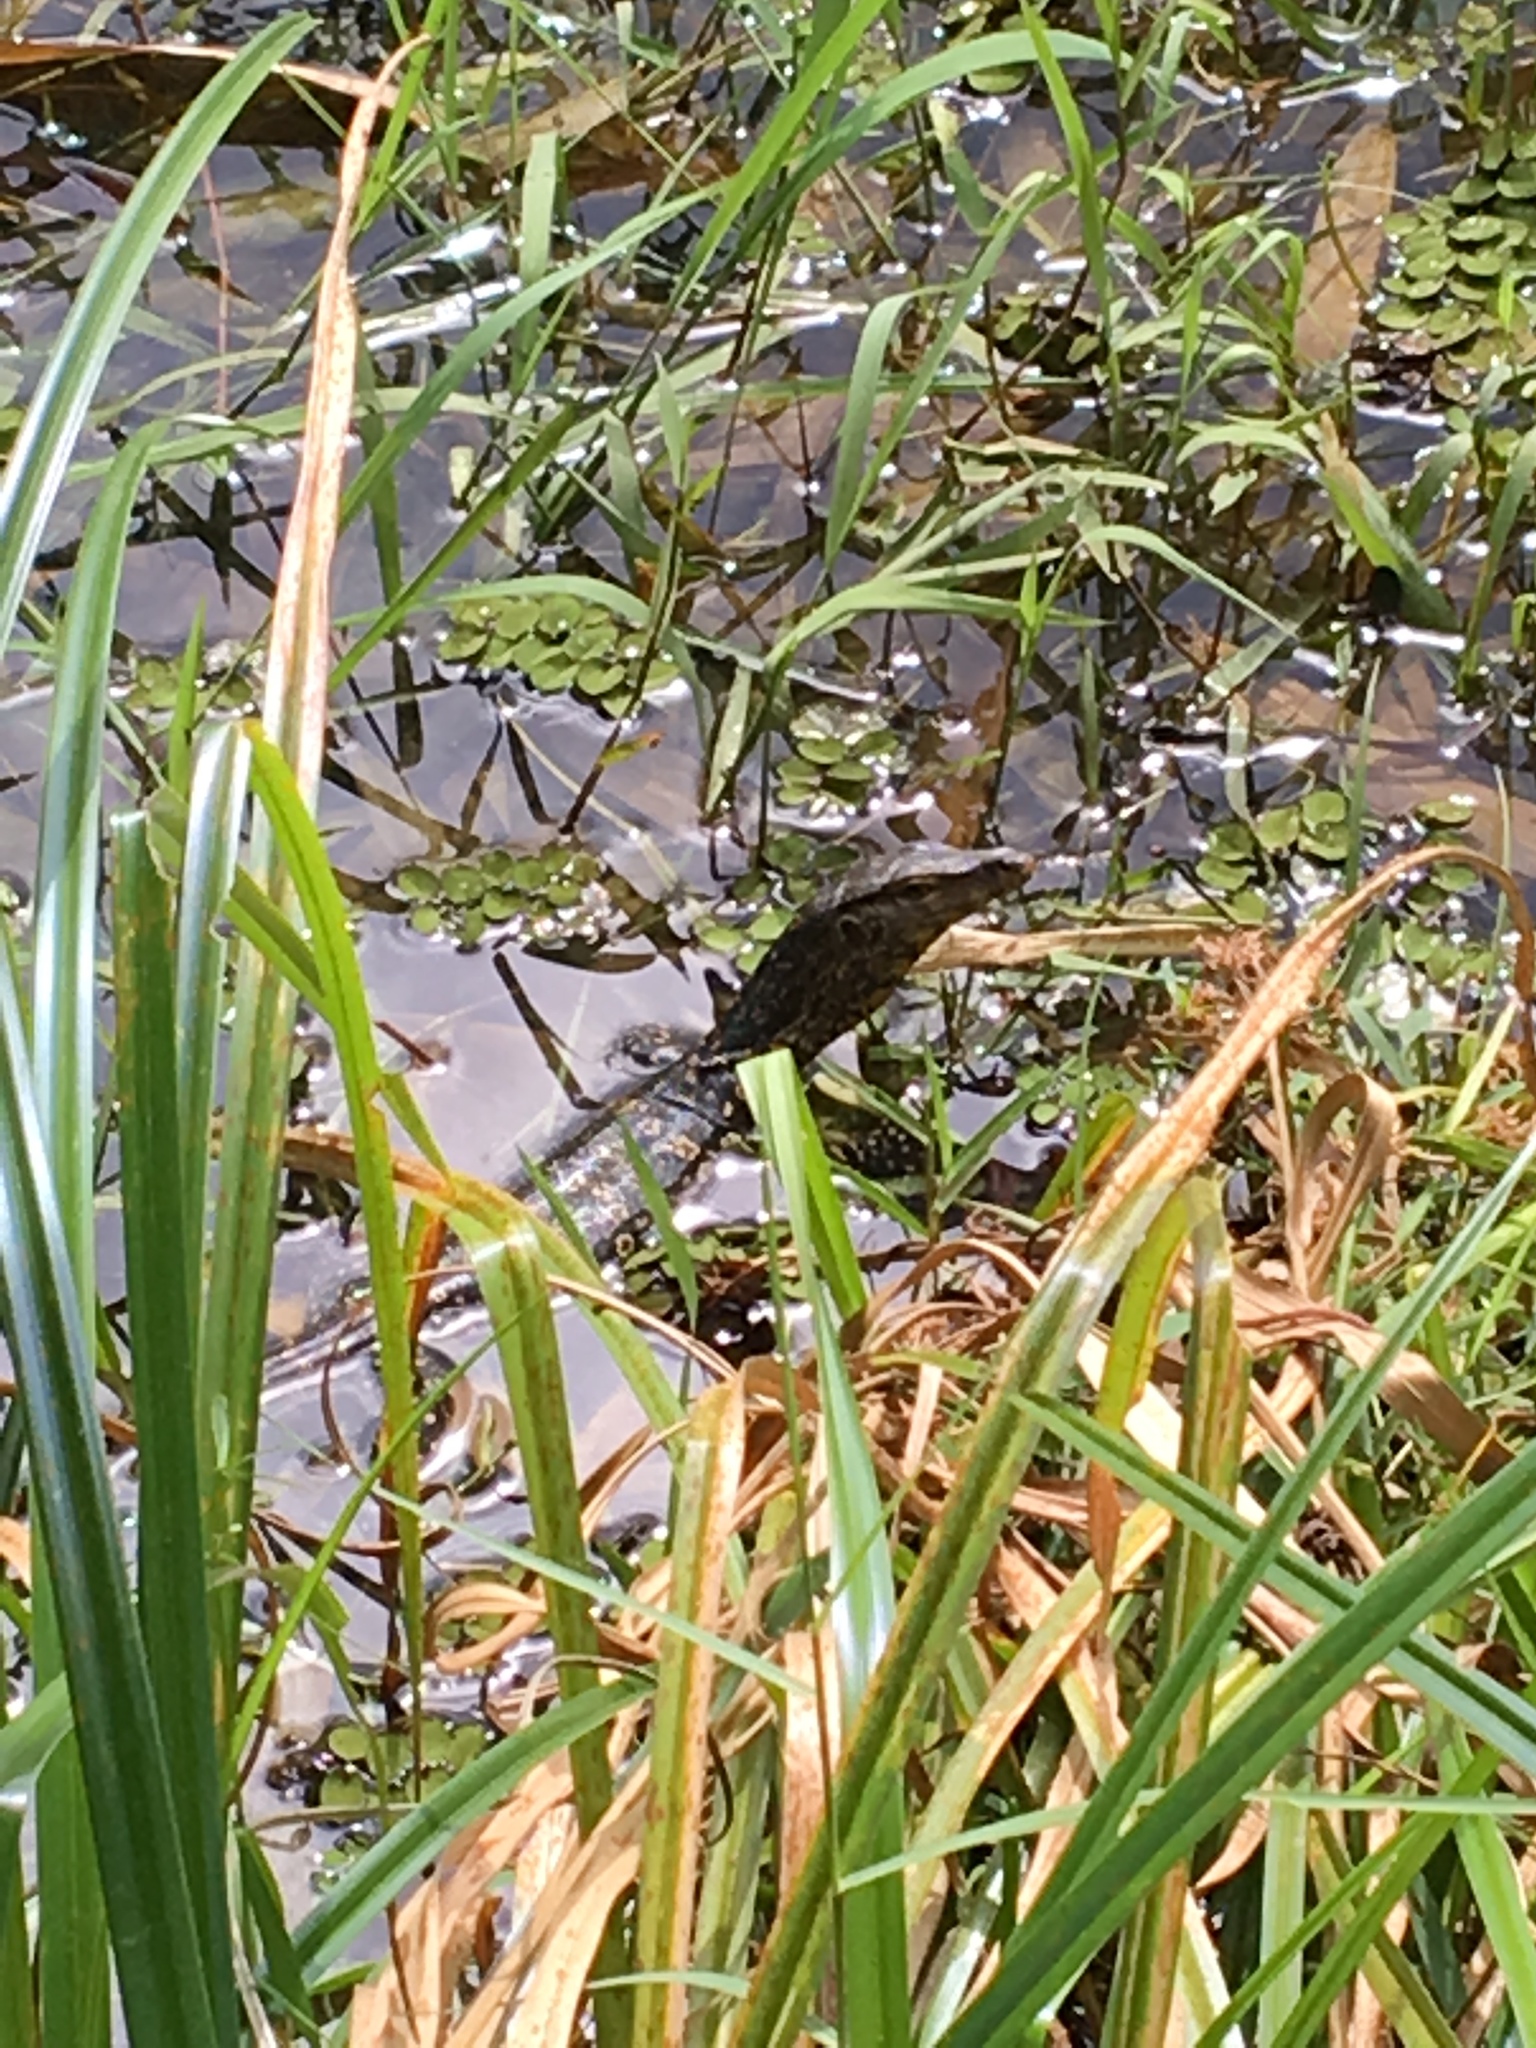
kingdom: Animalia
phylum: Chordata
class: Squamata
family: Varanidae
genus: Varanus
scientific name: Varanus salvator
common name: Common water monitor
